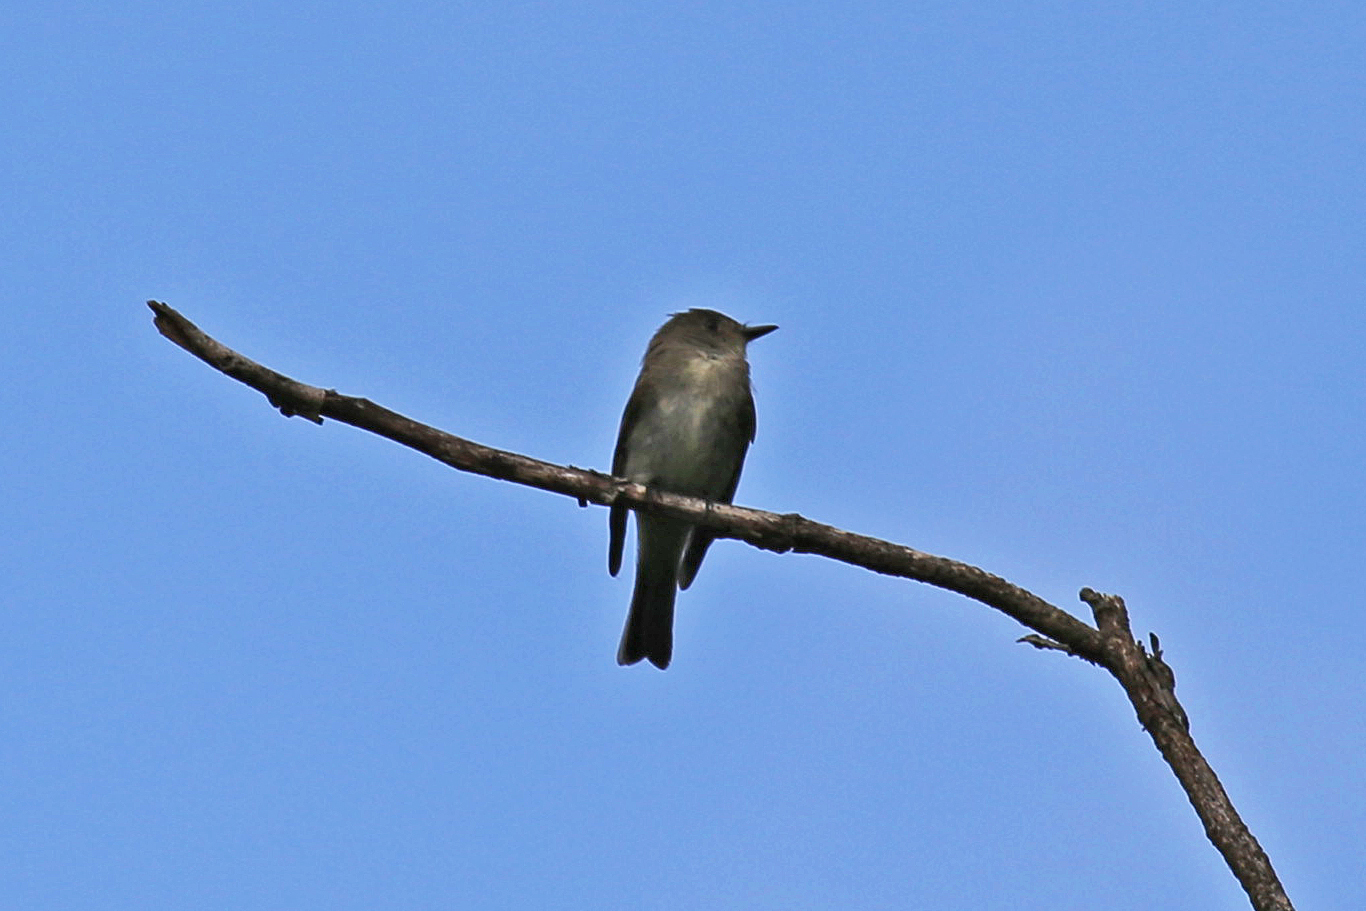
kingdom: Animalia
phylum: Chordata
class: Aves
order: Passeriformes
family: Tyrannidae
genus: Contopus
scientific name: Contopus virens
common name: Eastern wood-pewee
